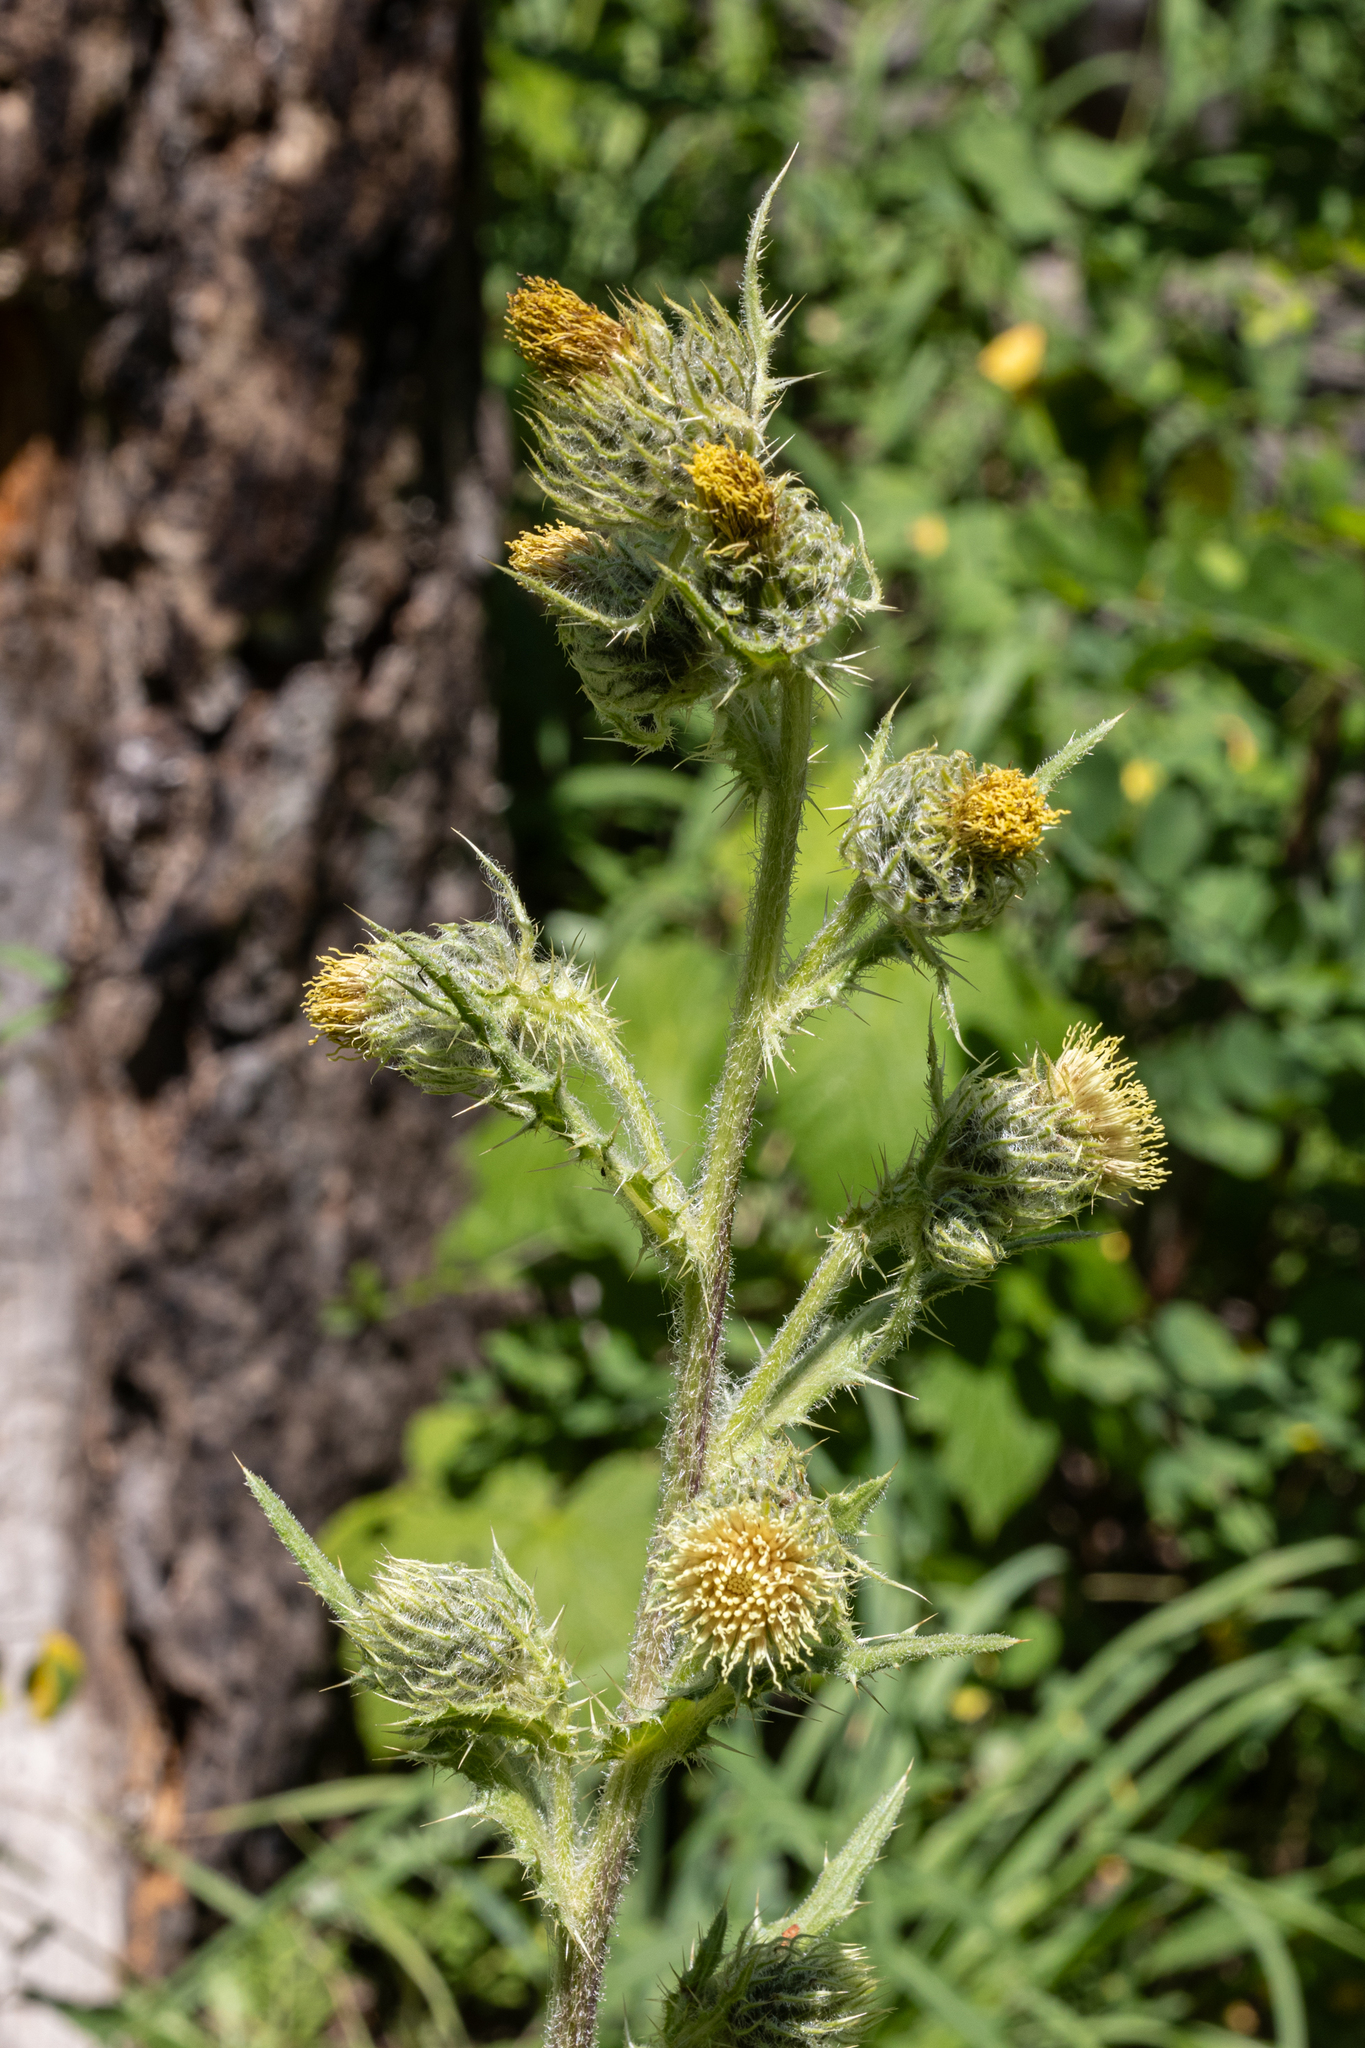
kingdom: Plantae
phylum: Tracheophyta
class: Magnoliopsida
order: Asterales
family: Asteraceae
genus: Cirsium
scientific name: Cirsium parryi
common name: Parry's thistle
